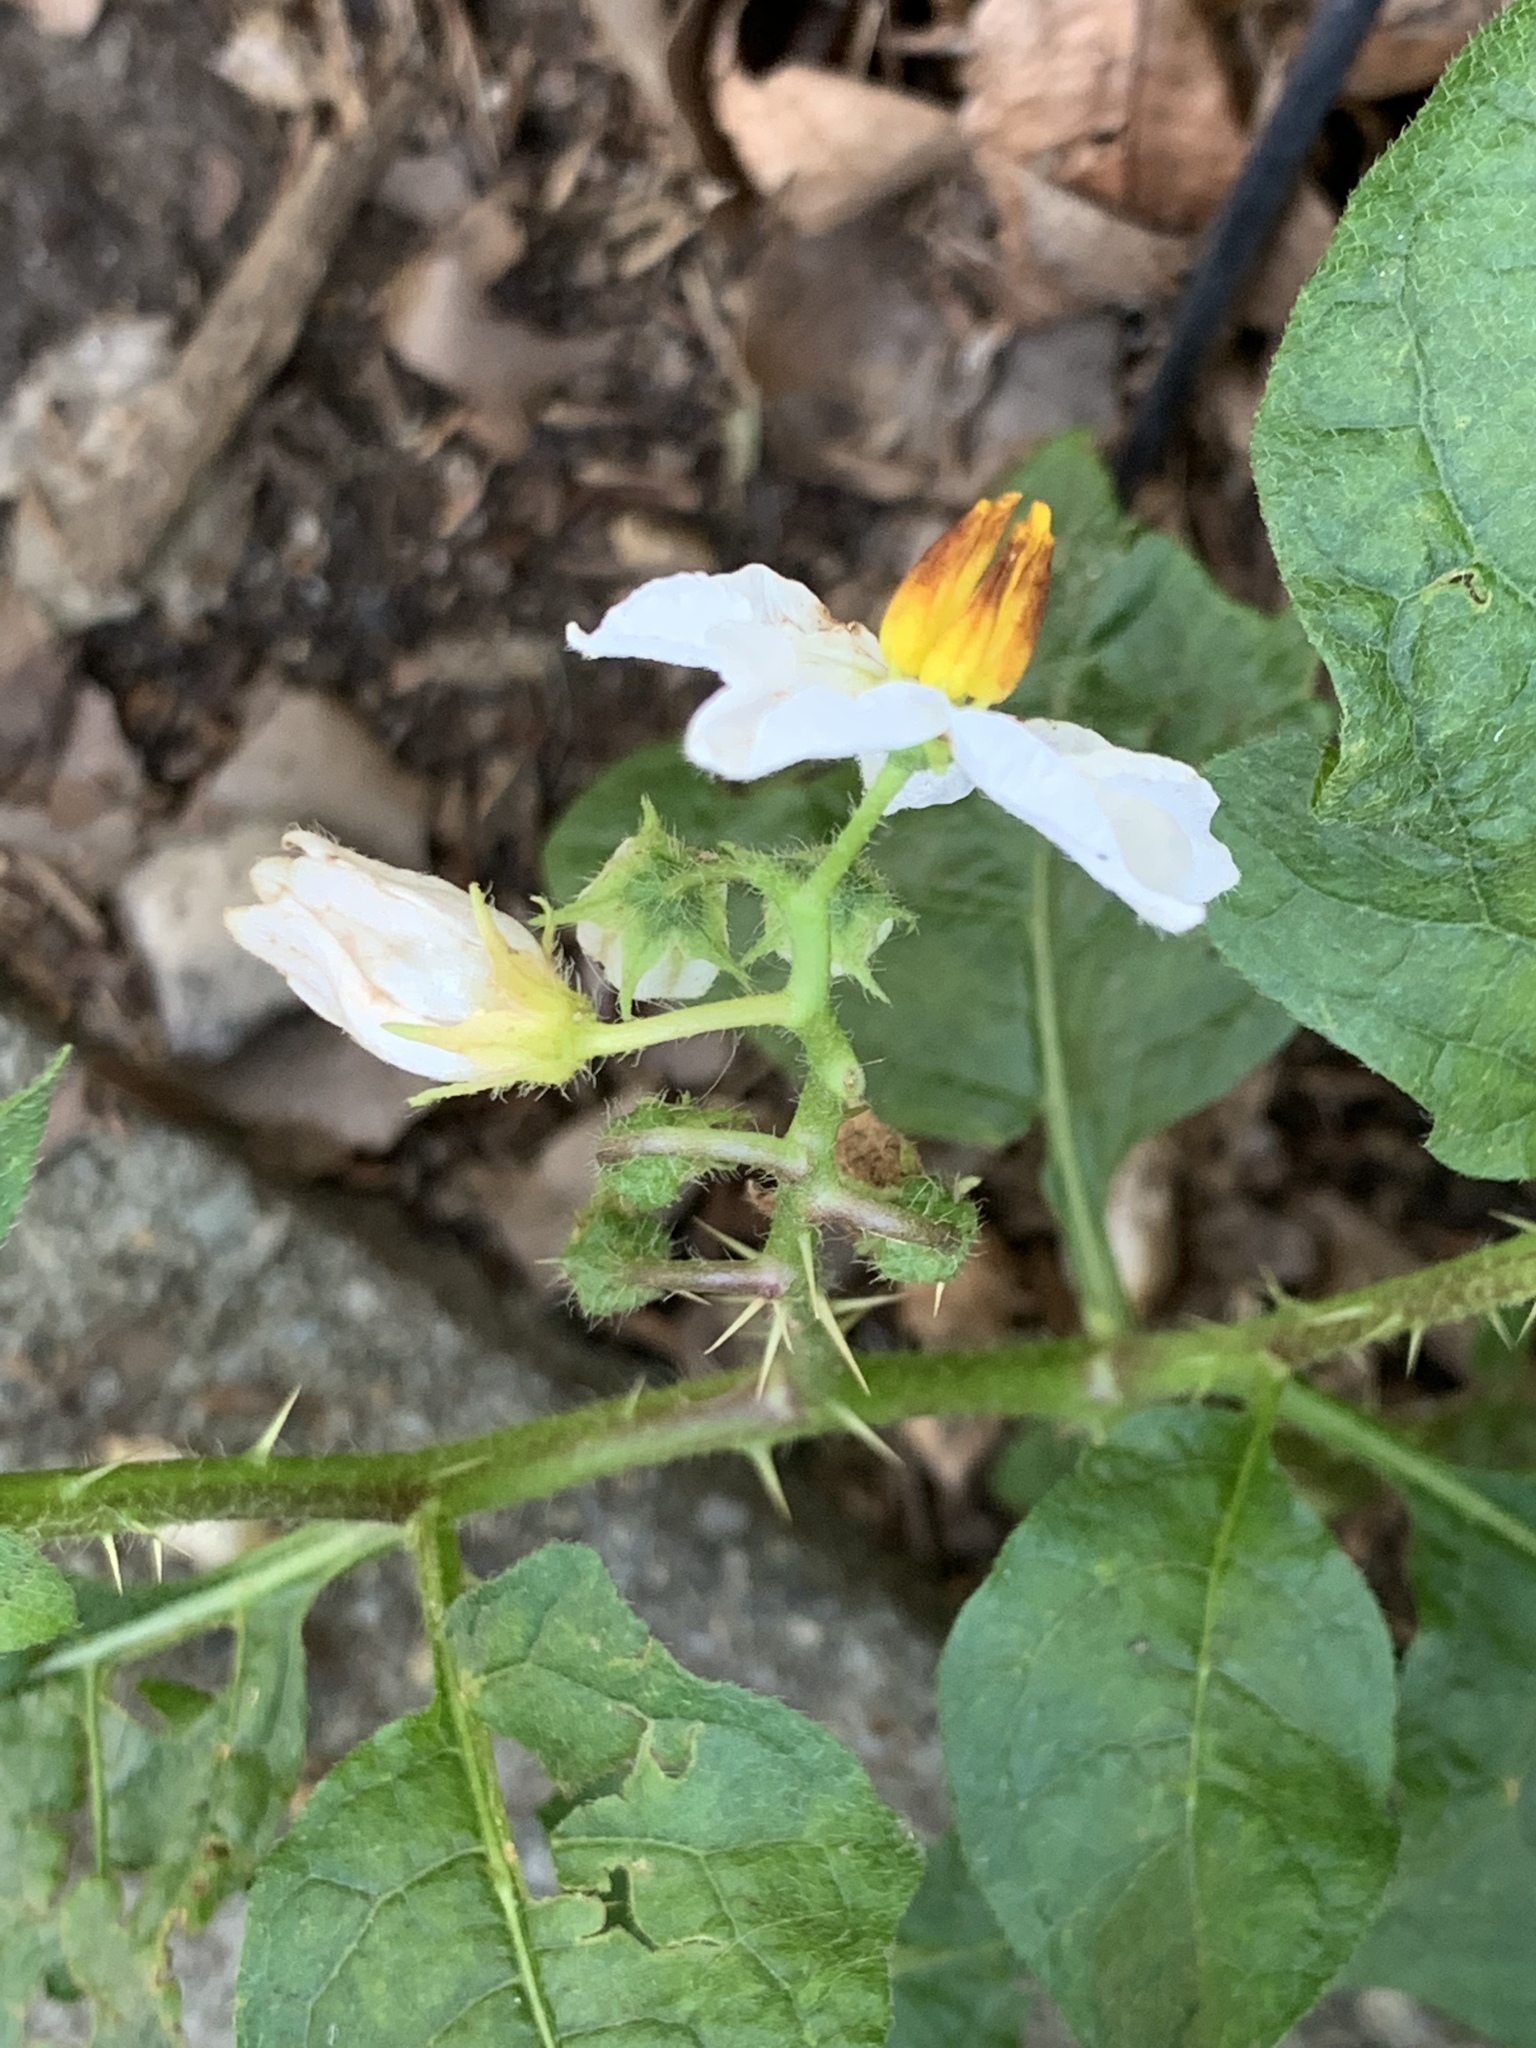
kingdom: Plantae
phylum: Tracheophyta
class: Magnoliopsida
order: Solanales
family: Solanaceae
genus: Solanum
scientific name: Solanum carolinense
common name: Horse-nettle
